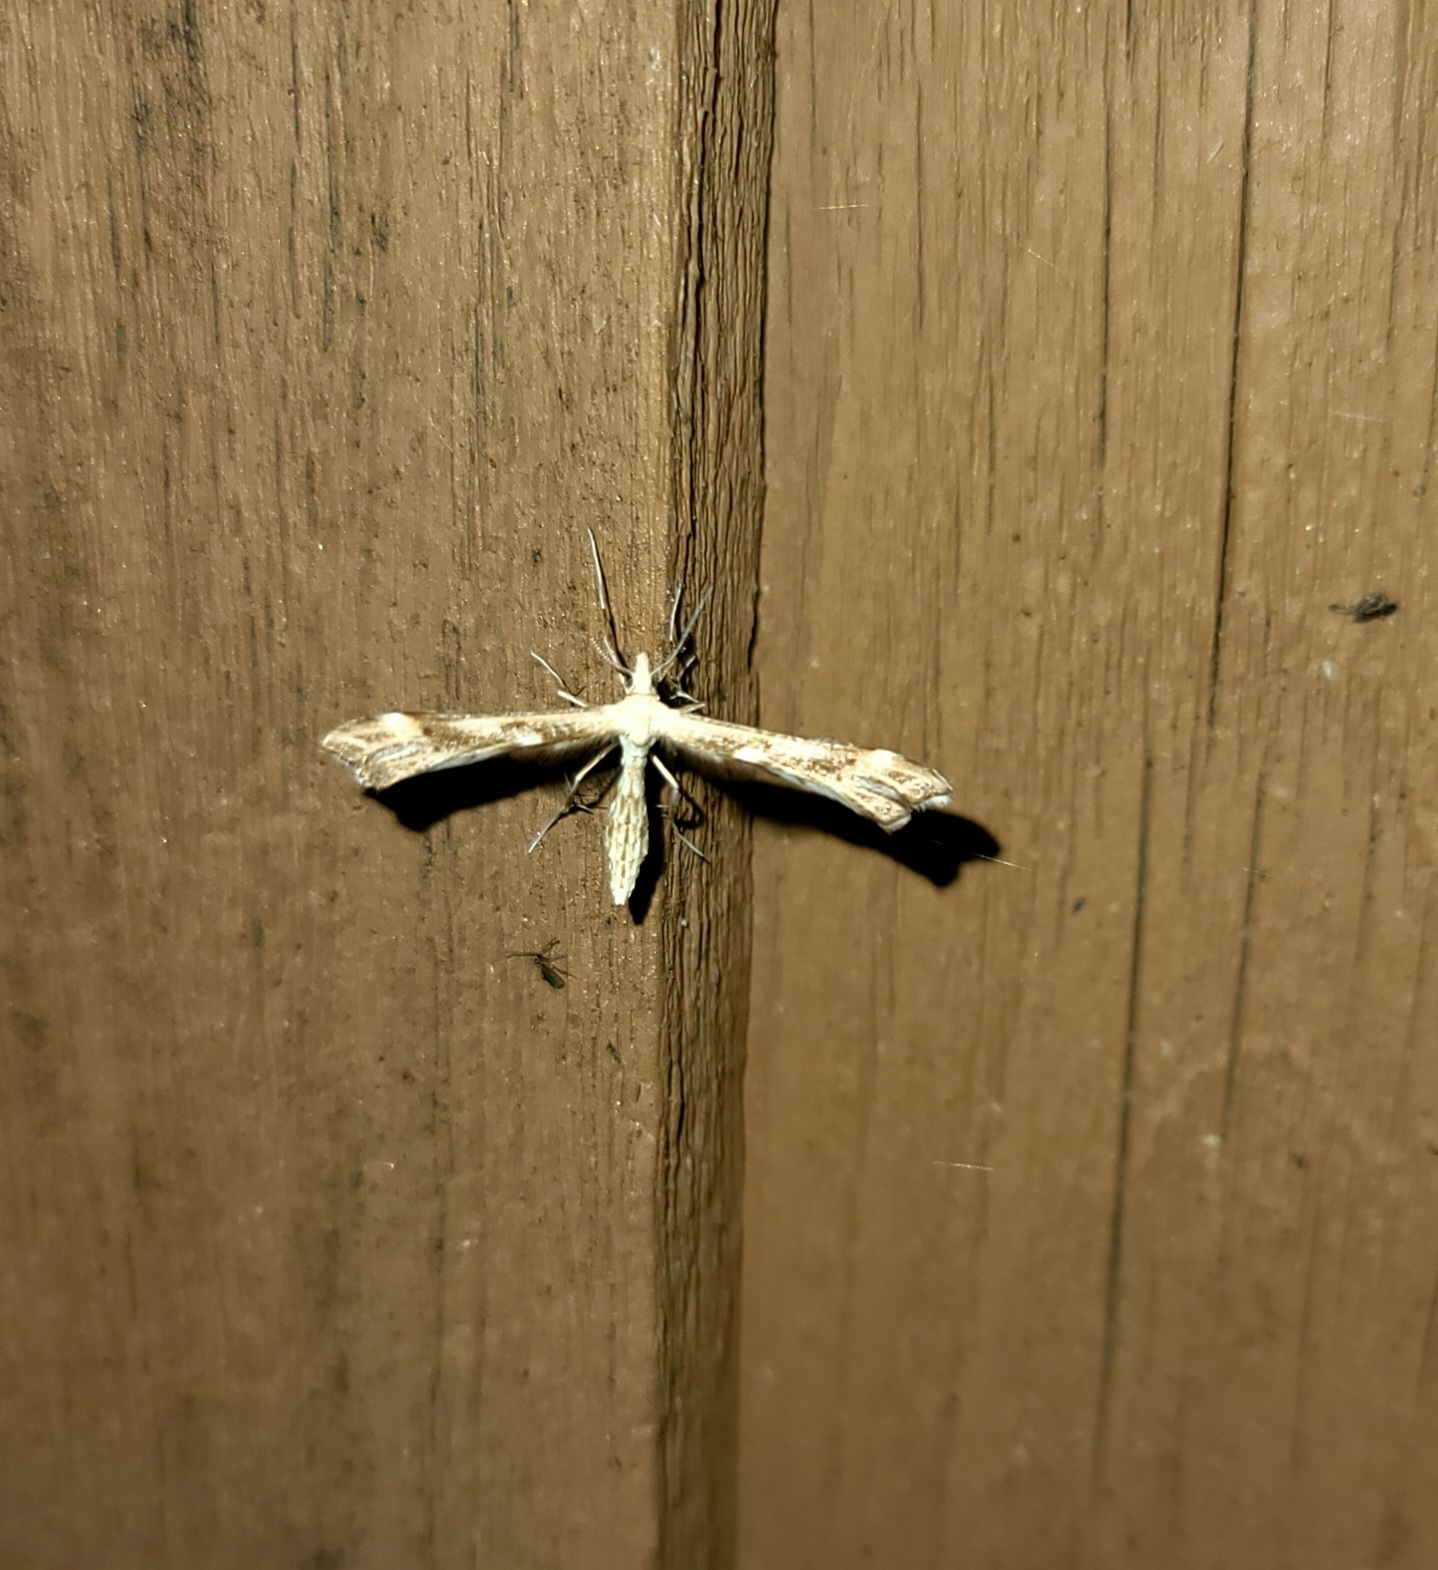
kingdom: Animalia
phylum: Arthropoda
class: Insecta
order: Lepidoptera
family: Pterophoridae
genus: Gillmeria
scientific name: Gillmeria pallidactyla
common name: Yarrow plume
